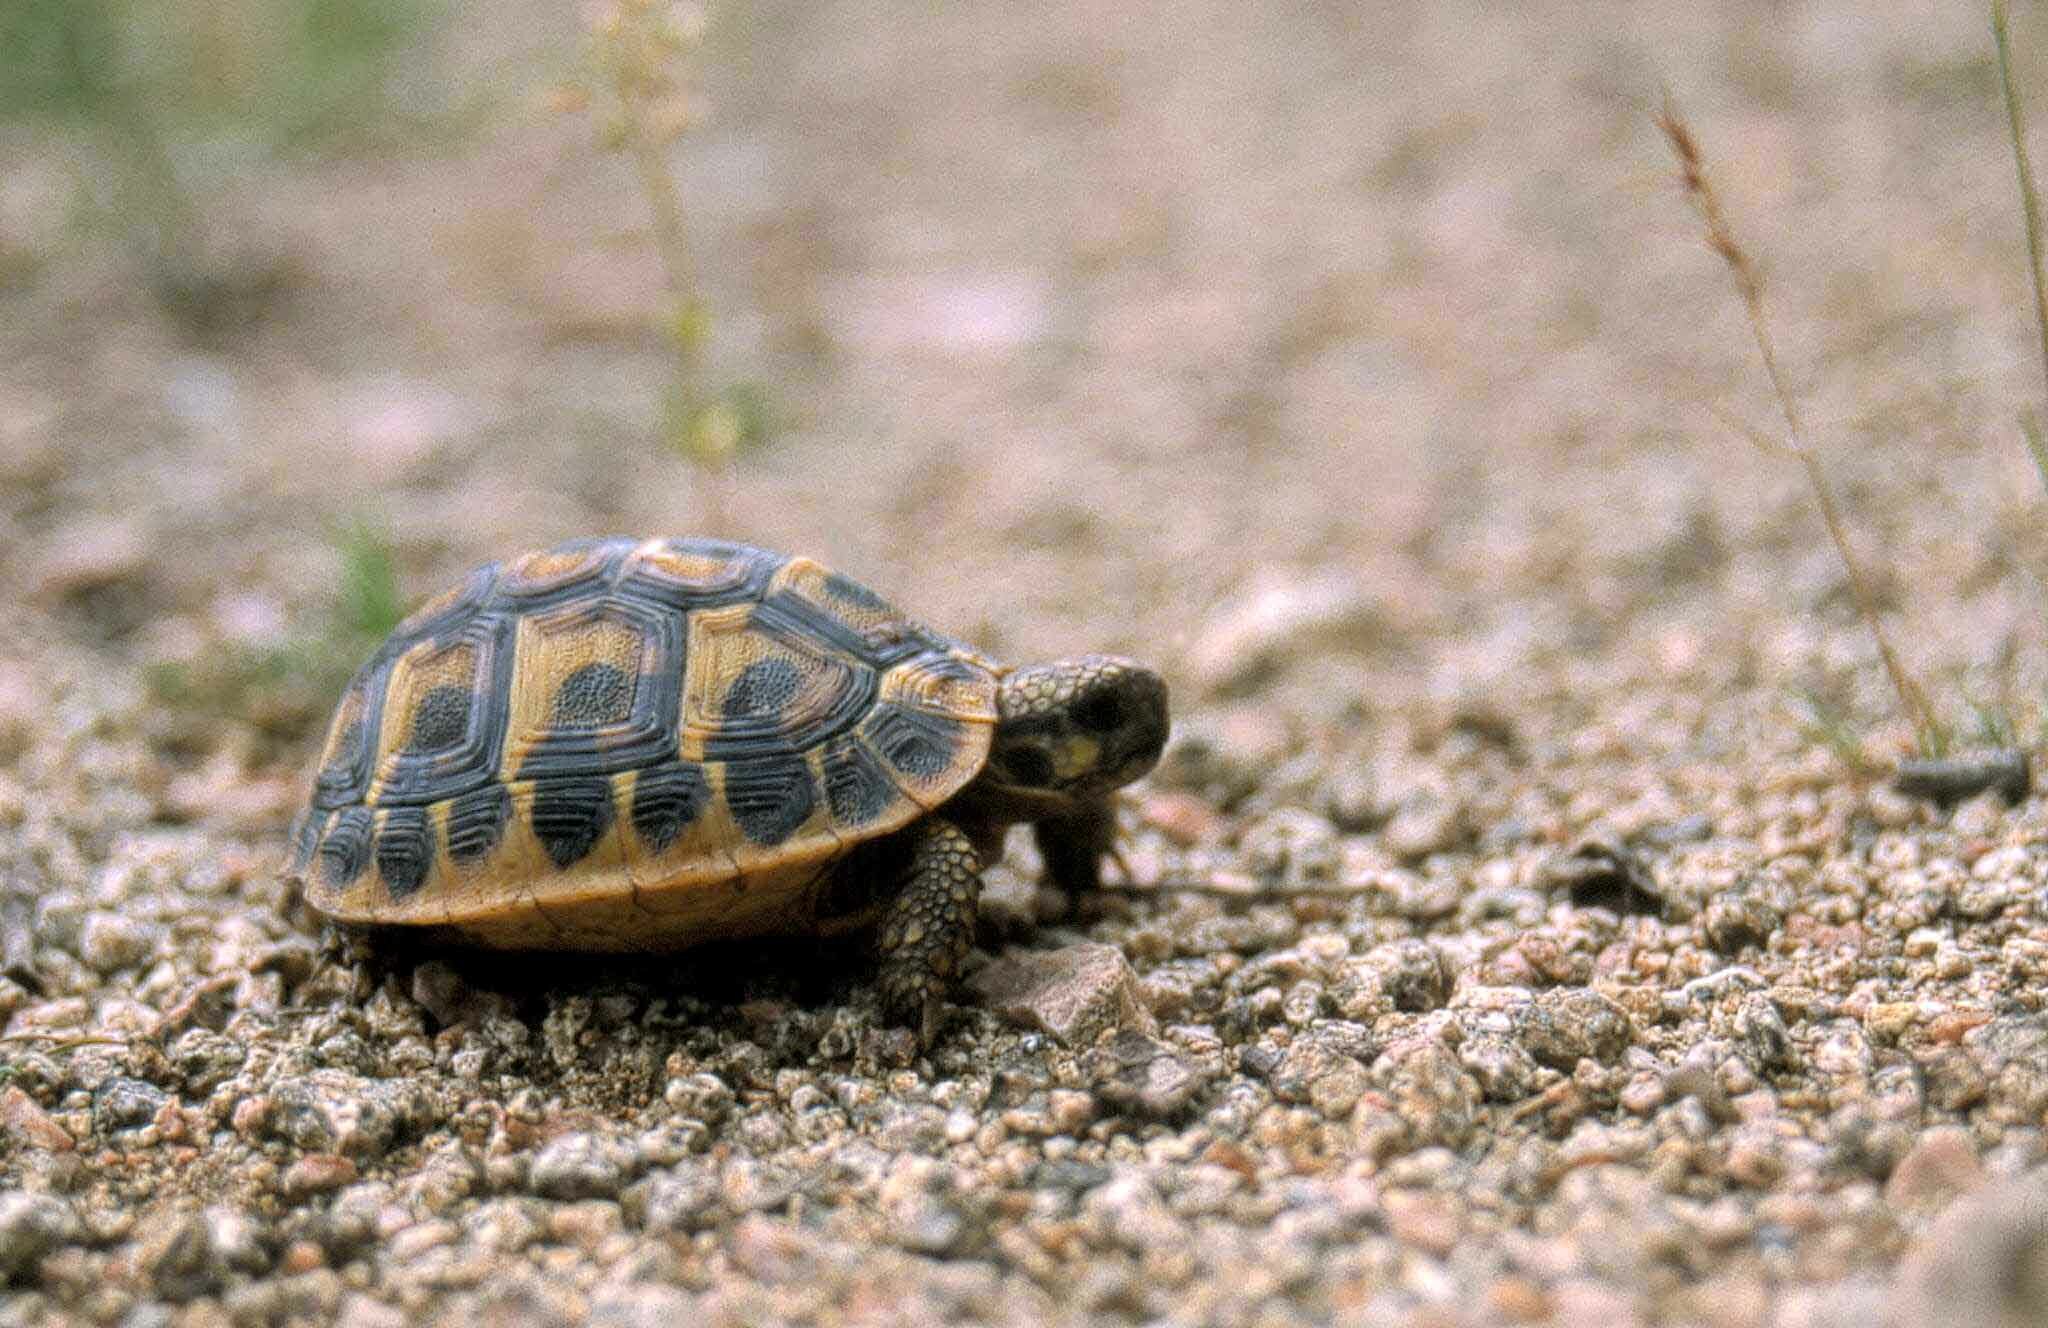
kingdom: Animalia
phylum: Chordata
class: Testudines
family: Testudinidae
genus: Testudo
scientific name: Testudo hermanni
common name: Hermann's tortoise
